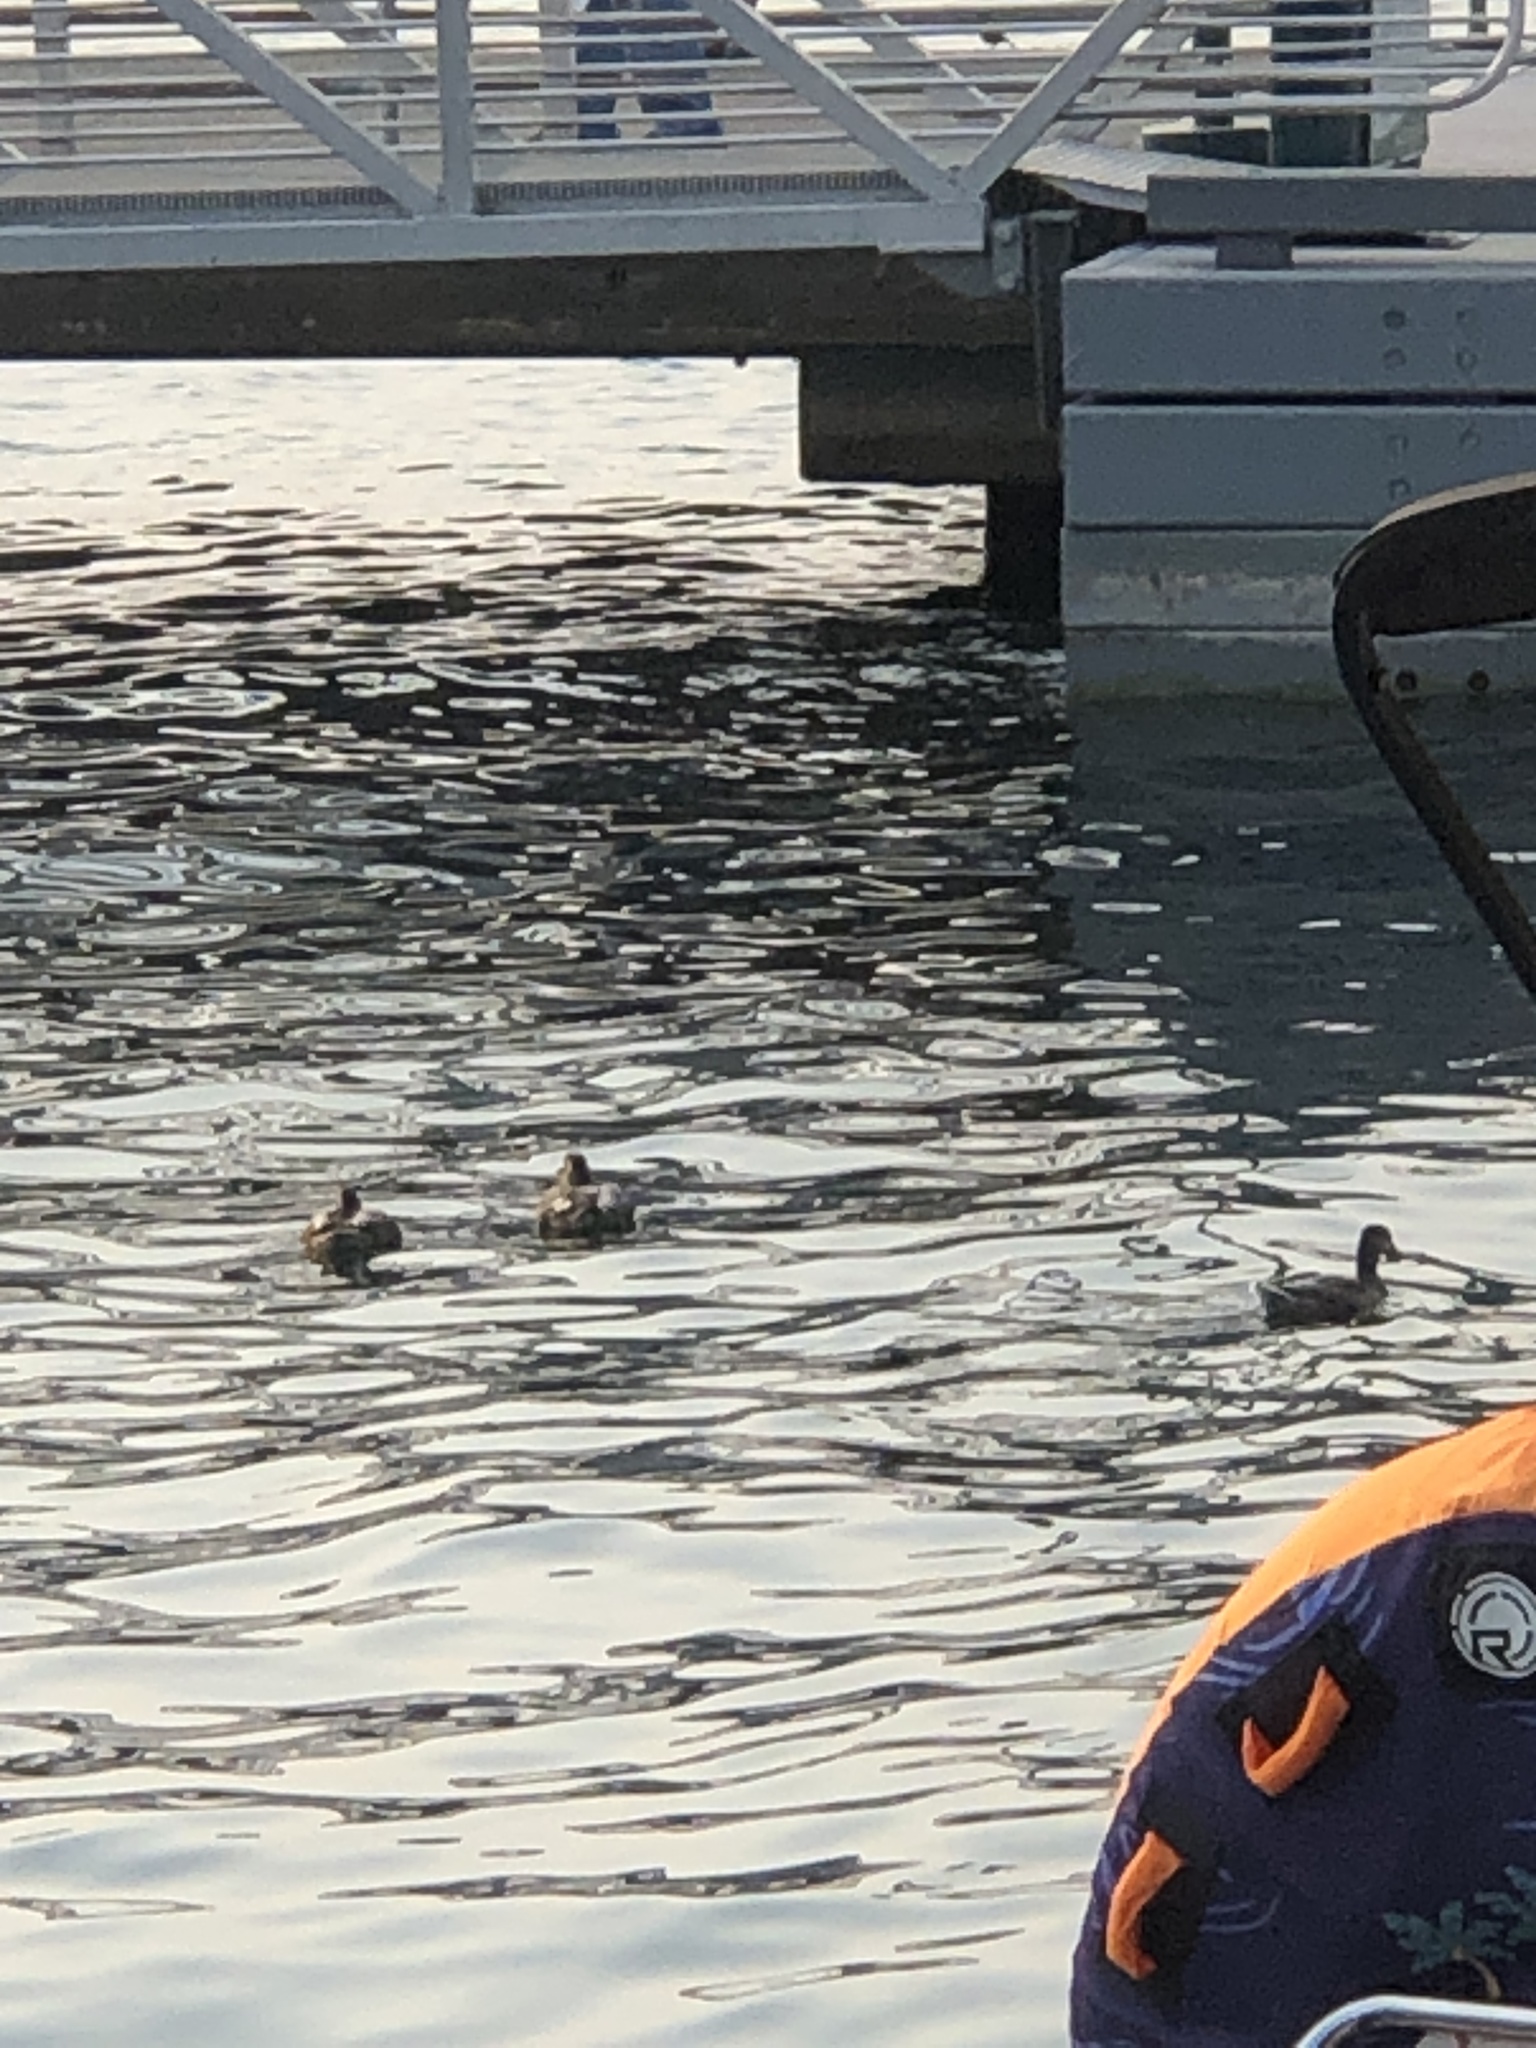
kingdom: Animalia
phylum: Chordata
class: Aves
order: Anseriformes
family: Anatidae
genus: Anas
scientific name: Anas platyrhynchos
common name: Mallard
